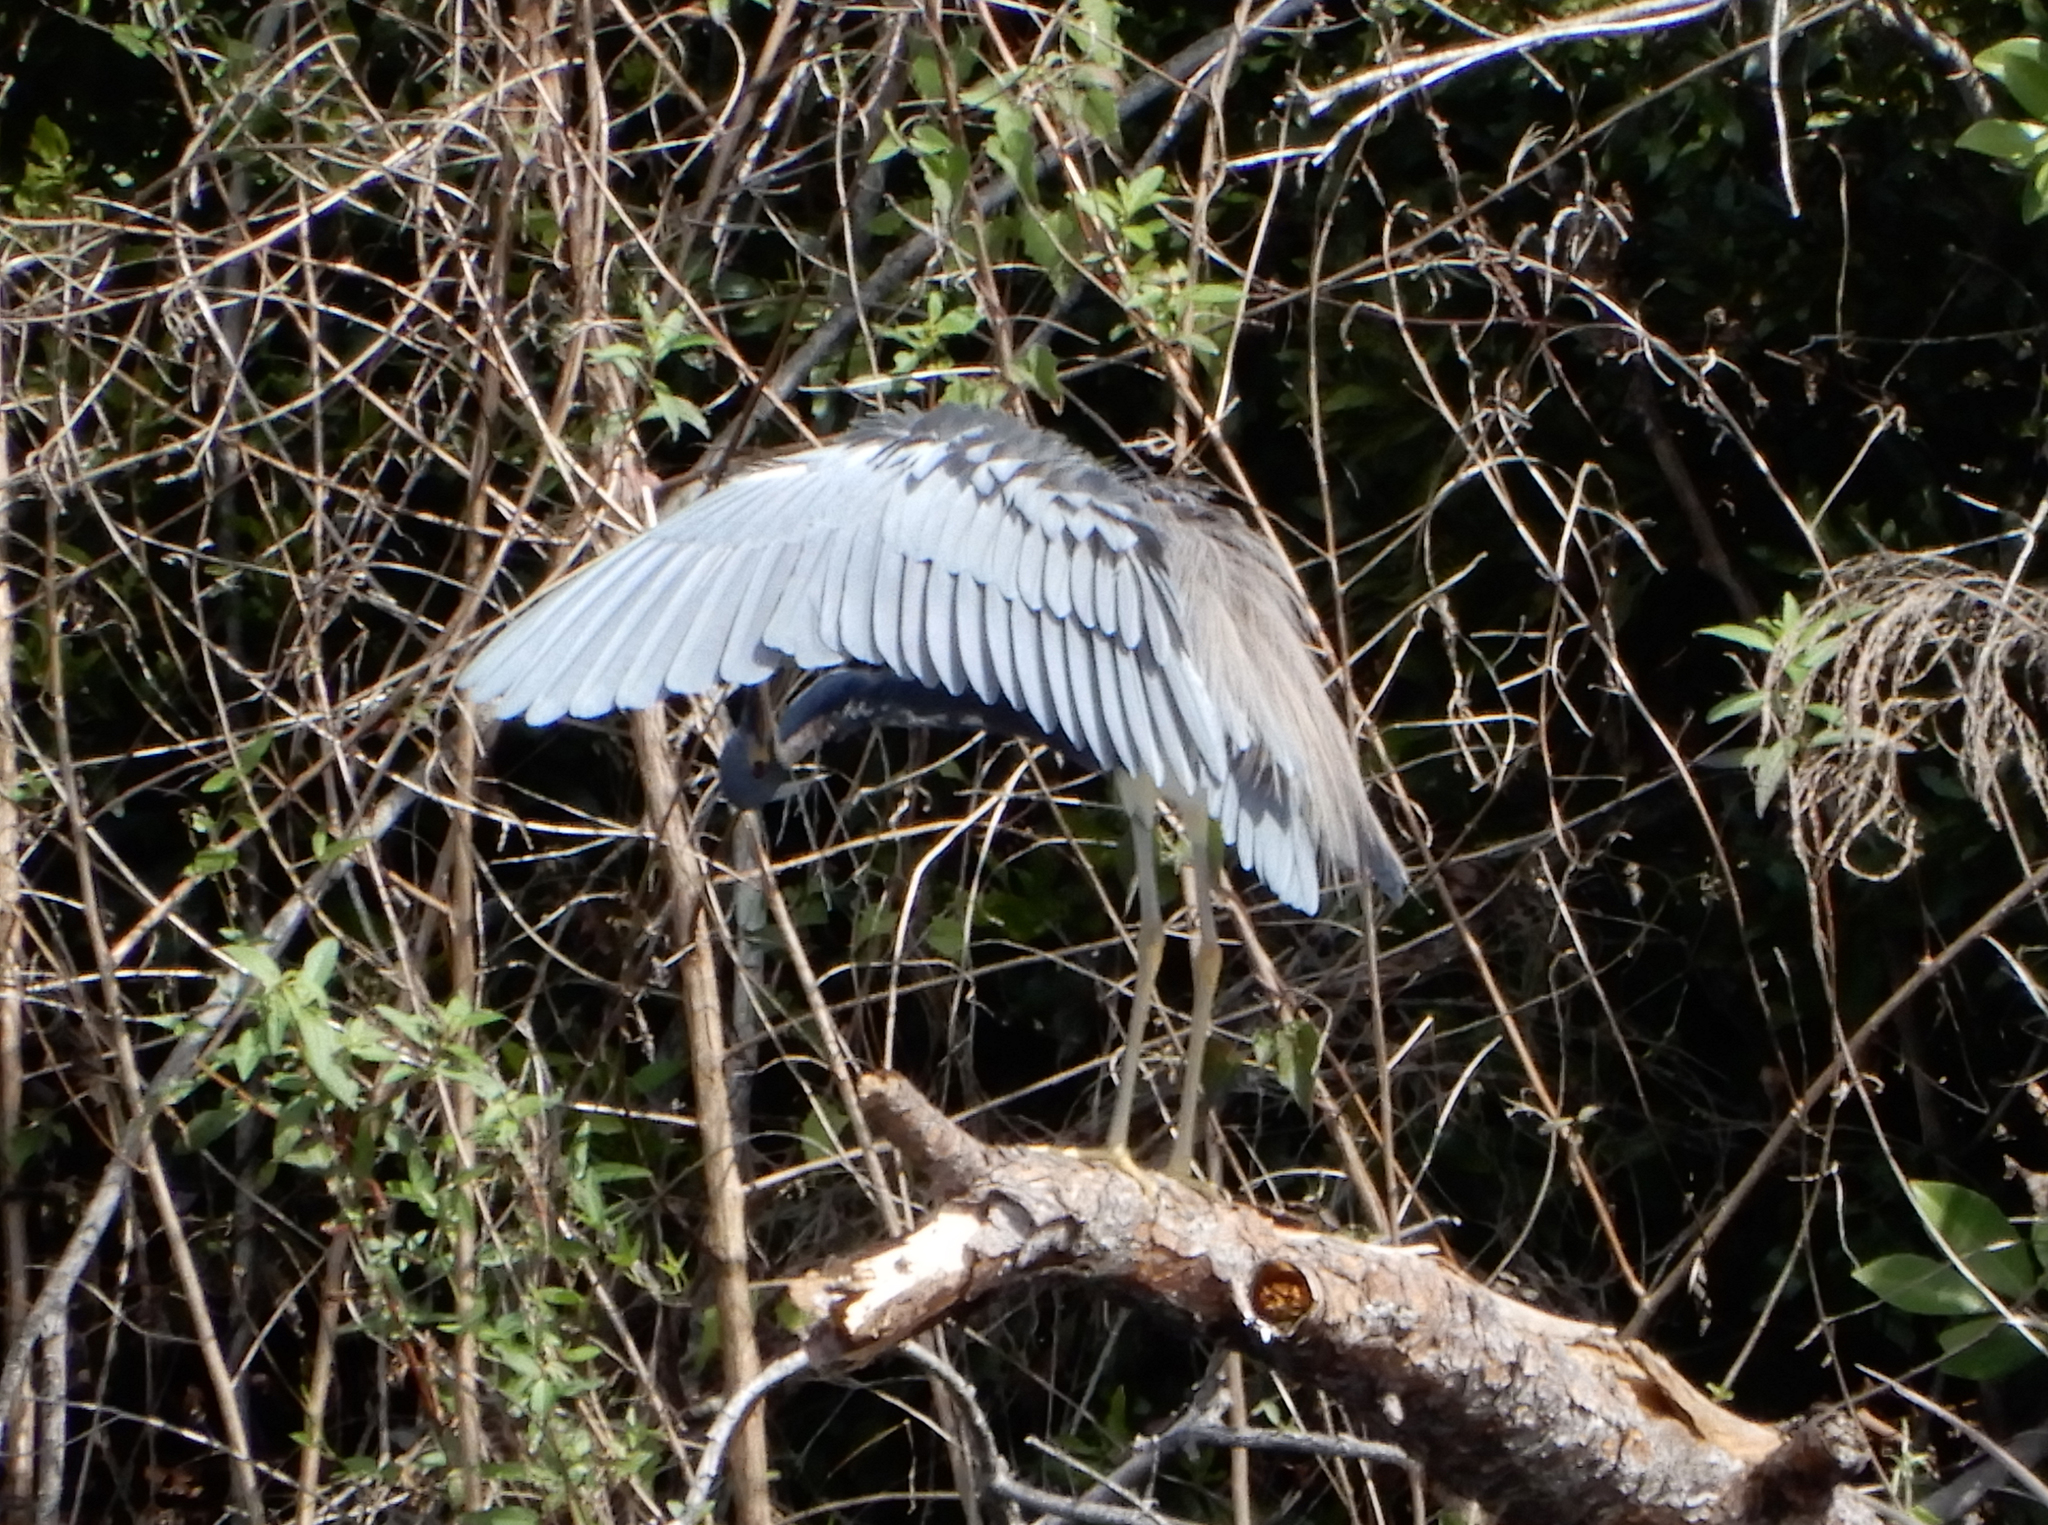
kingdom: Animalia
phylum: Chordata
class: Aves
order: Pelecaniformes
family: Ardeidae
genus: Egretta
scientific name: Egretta tricolor
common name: Tricolored heron
